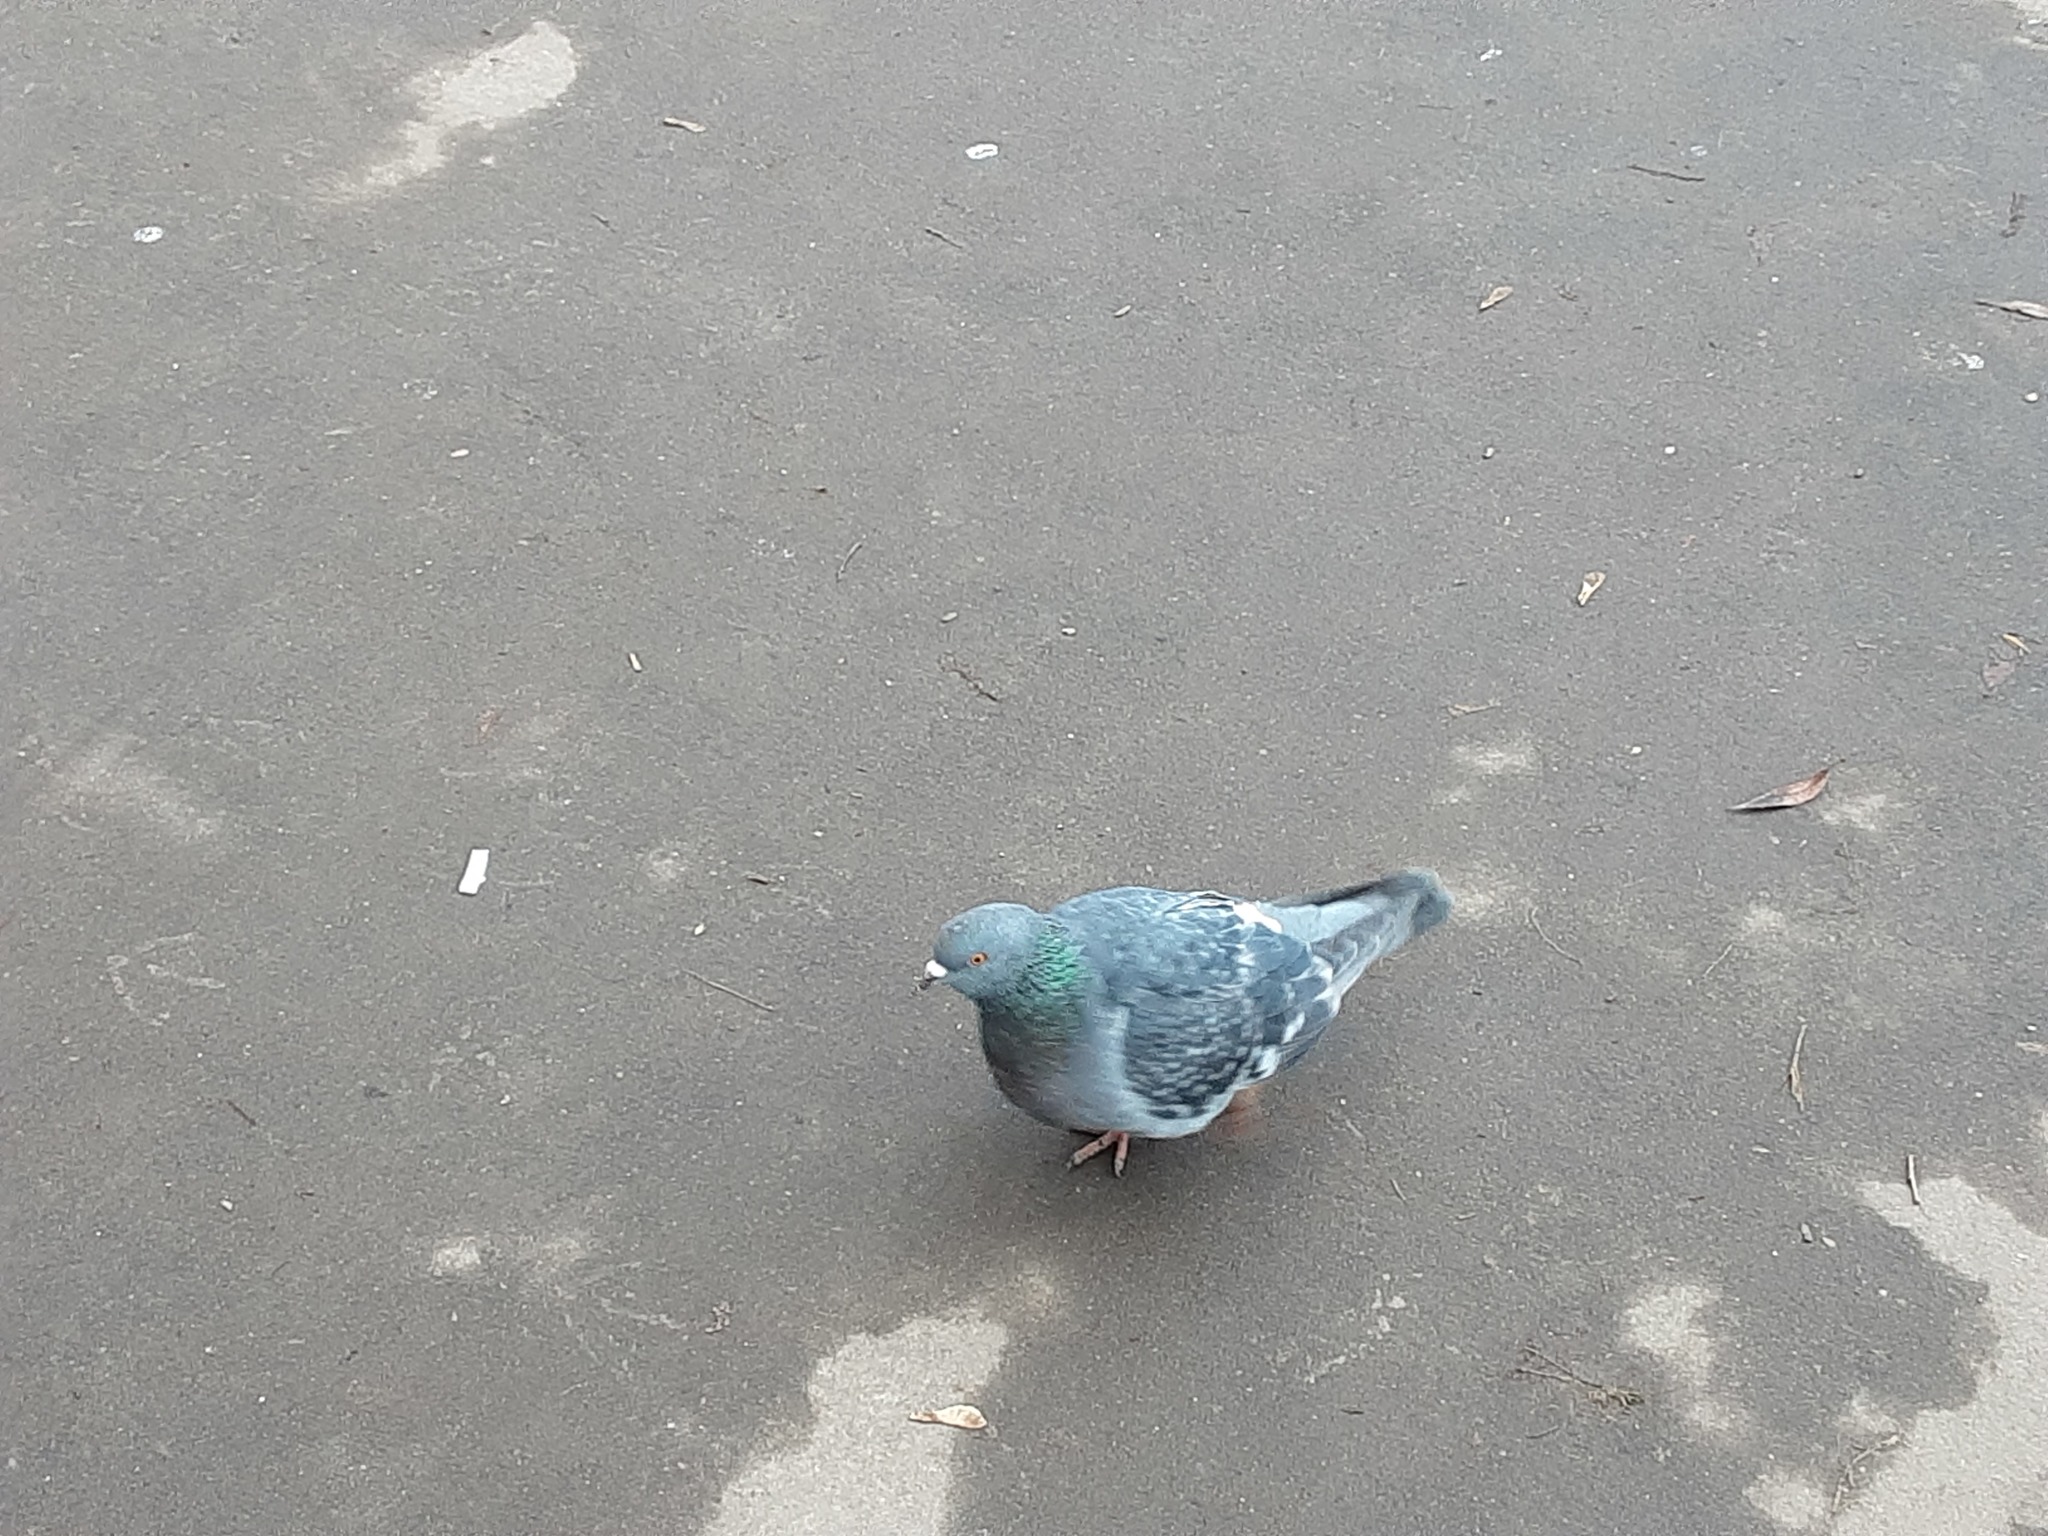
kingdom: Animalia
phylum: Chordata
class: Aves
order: Columbiformes
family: Columbidae
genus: Columba
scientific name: Columba livia
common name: Rock pigeon
